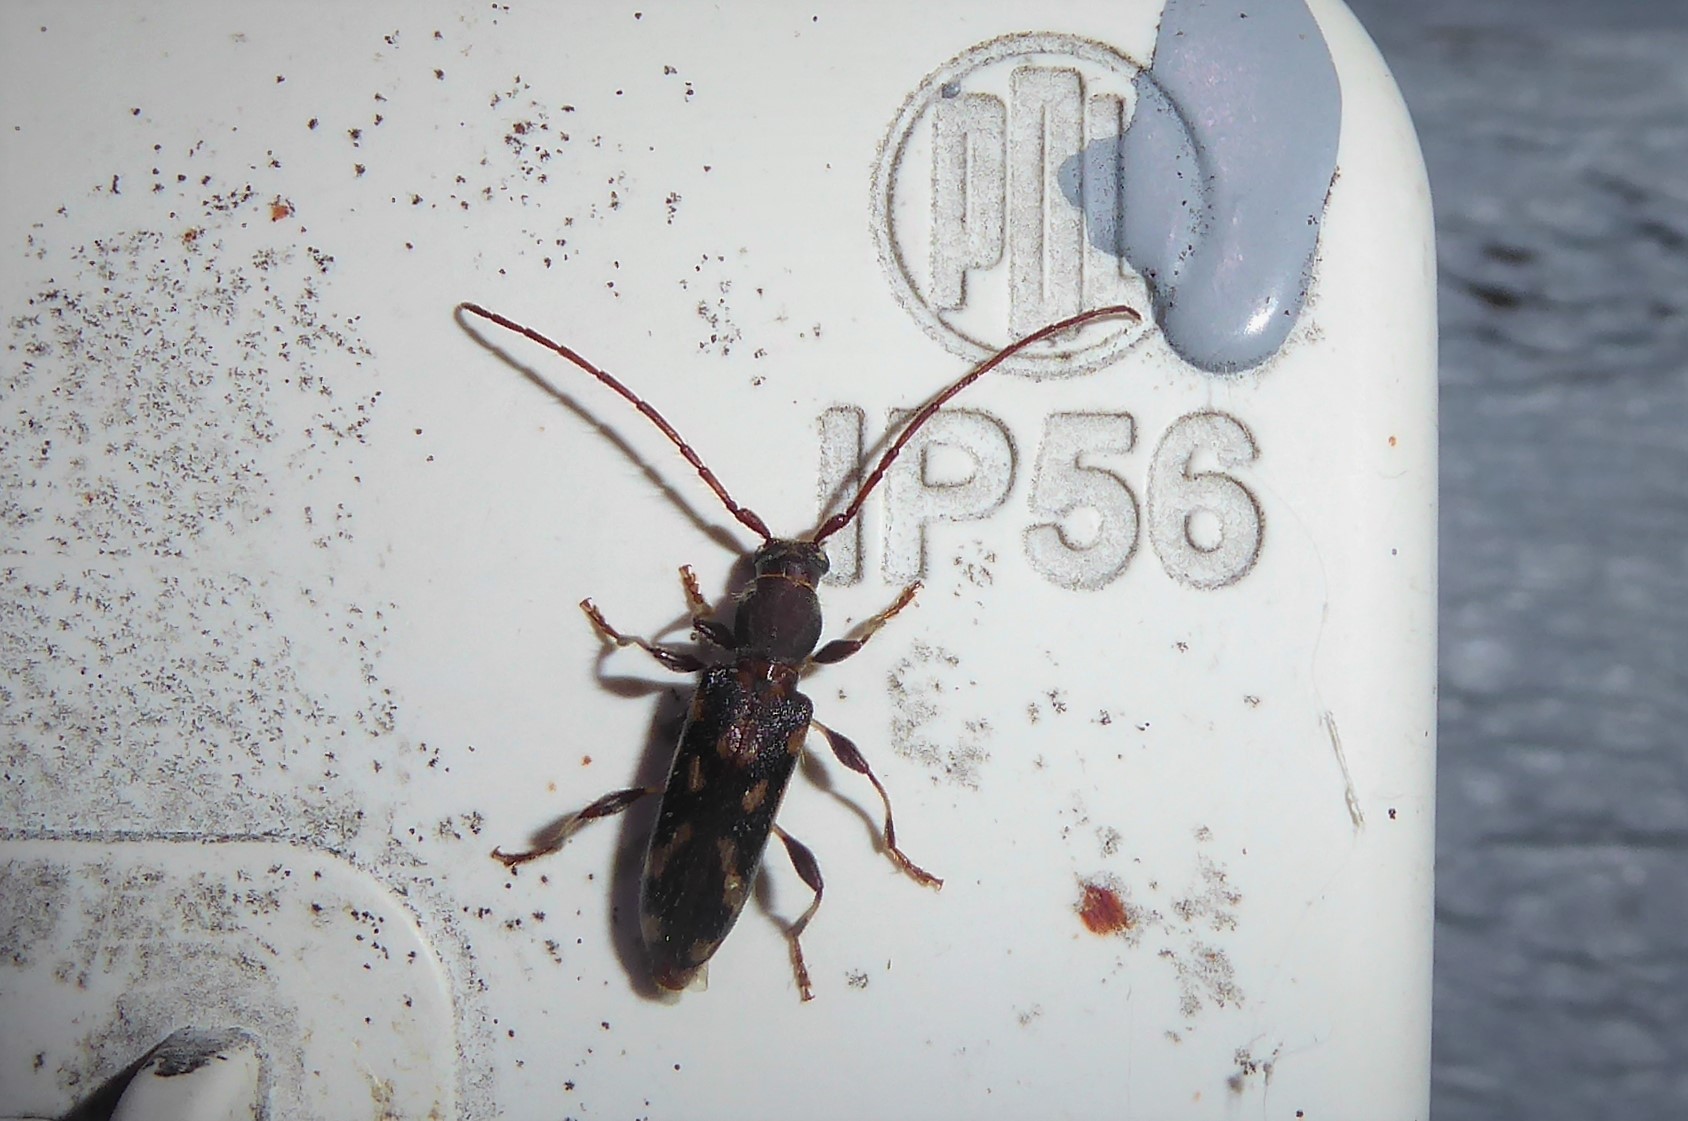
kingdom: Animalia
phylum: Arthropoda
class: Insecta
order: Coleoptera
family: Cerambycidae
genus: Bethelium
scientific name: Bethelium signiferum
